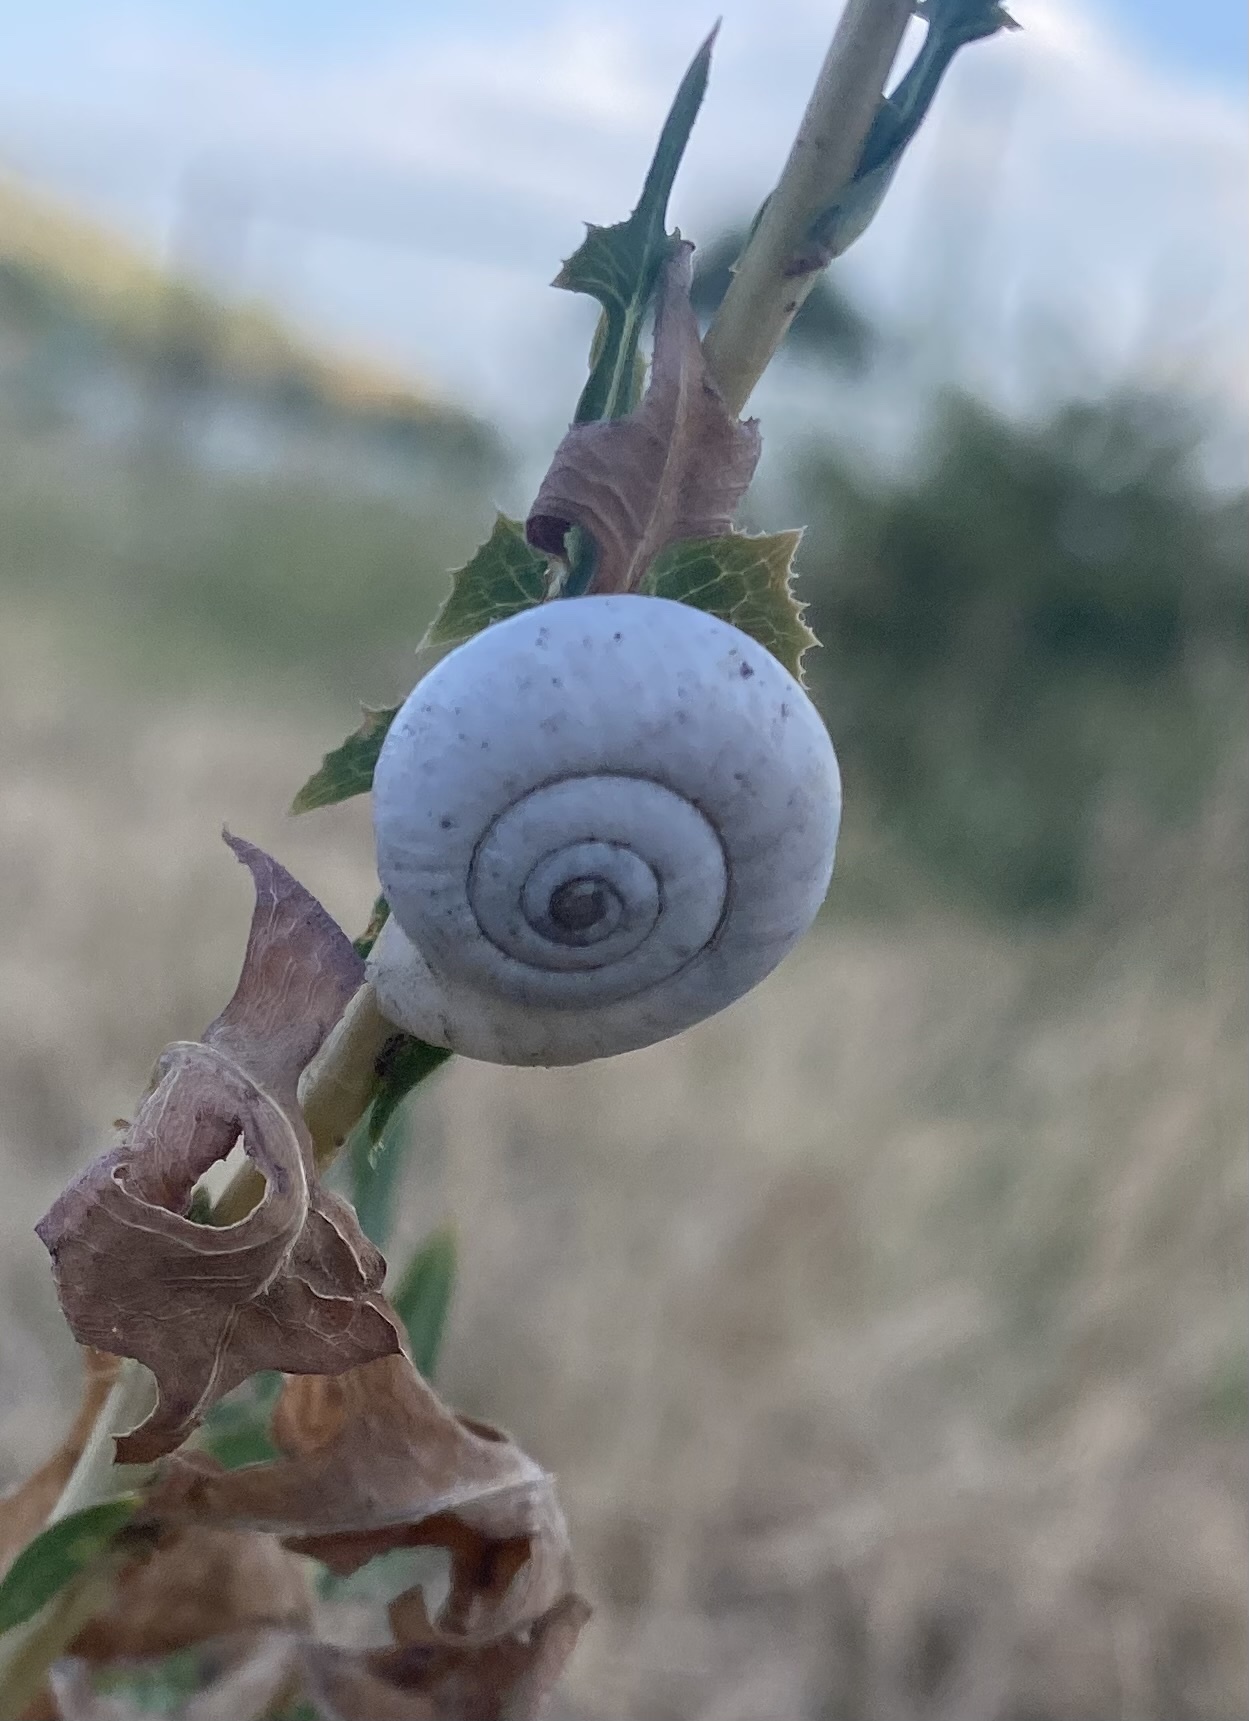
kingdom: Animalia
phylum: Mollusca
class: Gastropoda
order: Stylommatophora
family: Geomitridae
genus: Xeropicta
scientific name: Xeropicta derbentina
